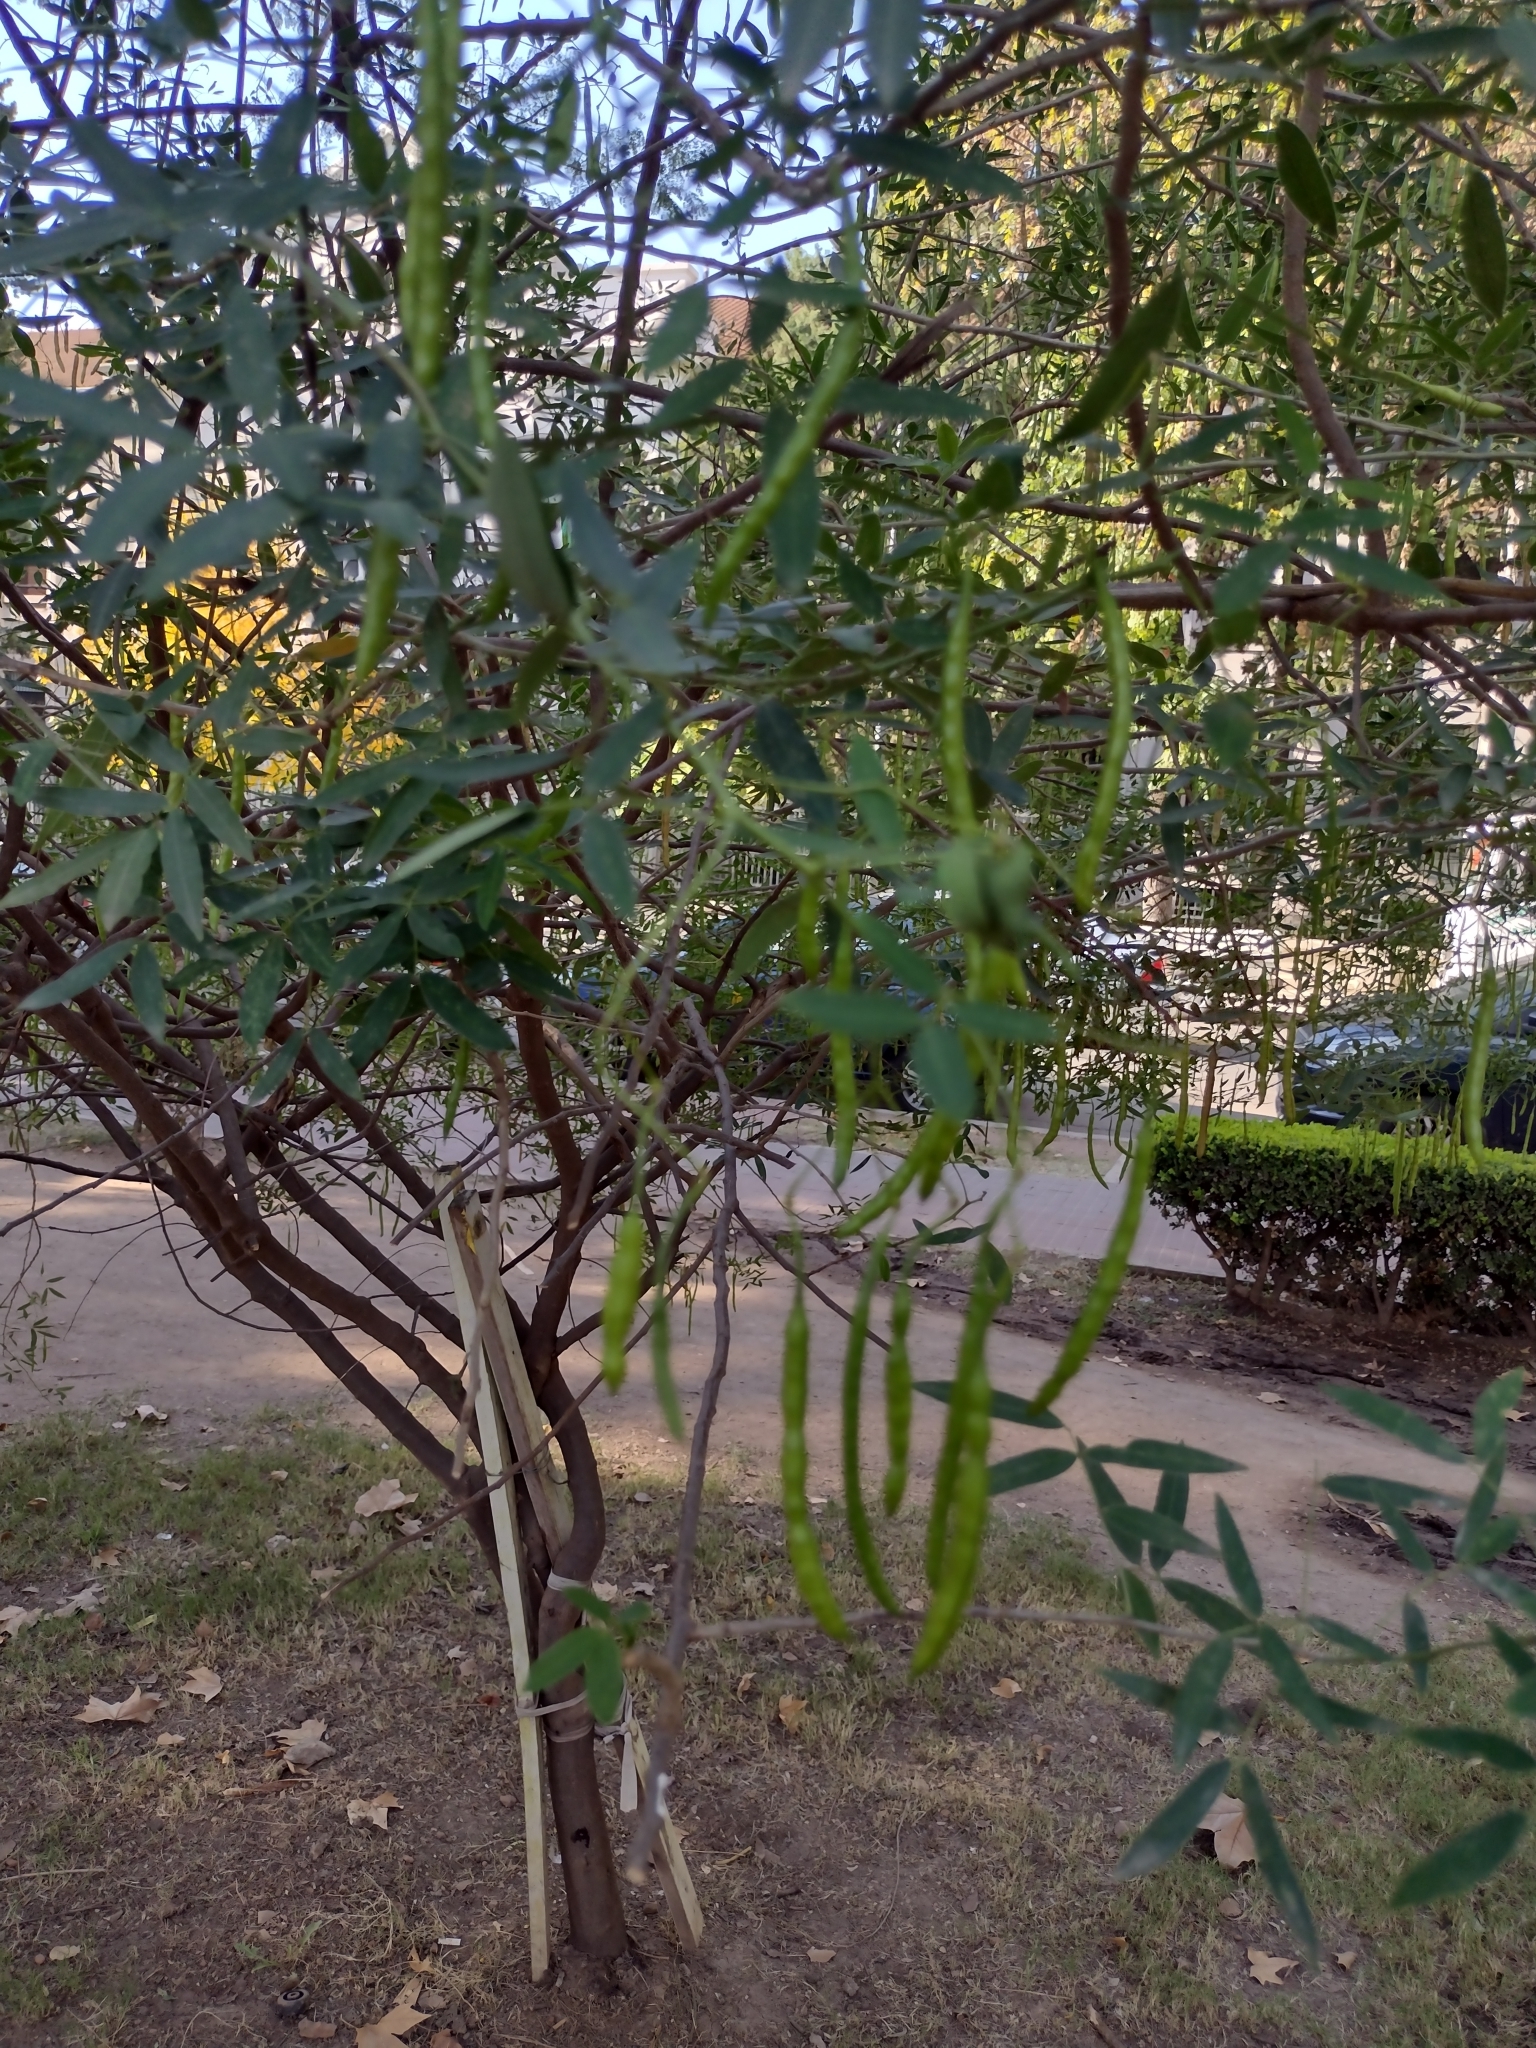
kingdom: Plantae
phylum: Tracheophyta
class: Magnoliopsida
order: Fabales
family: Fabaceae
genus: Senna
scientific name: Senna corymbosa
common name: Argentine senna
